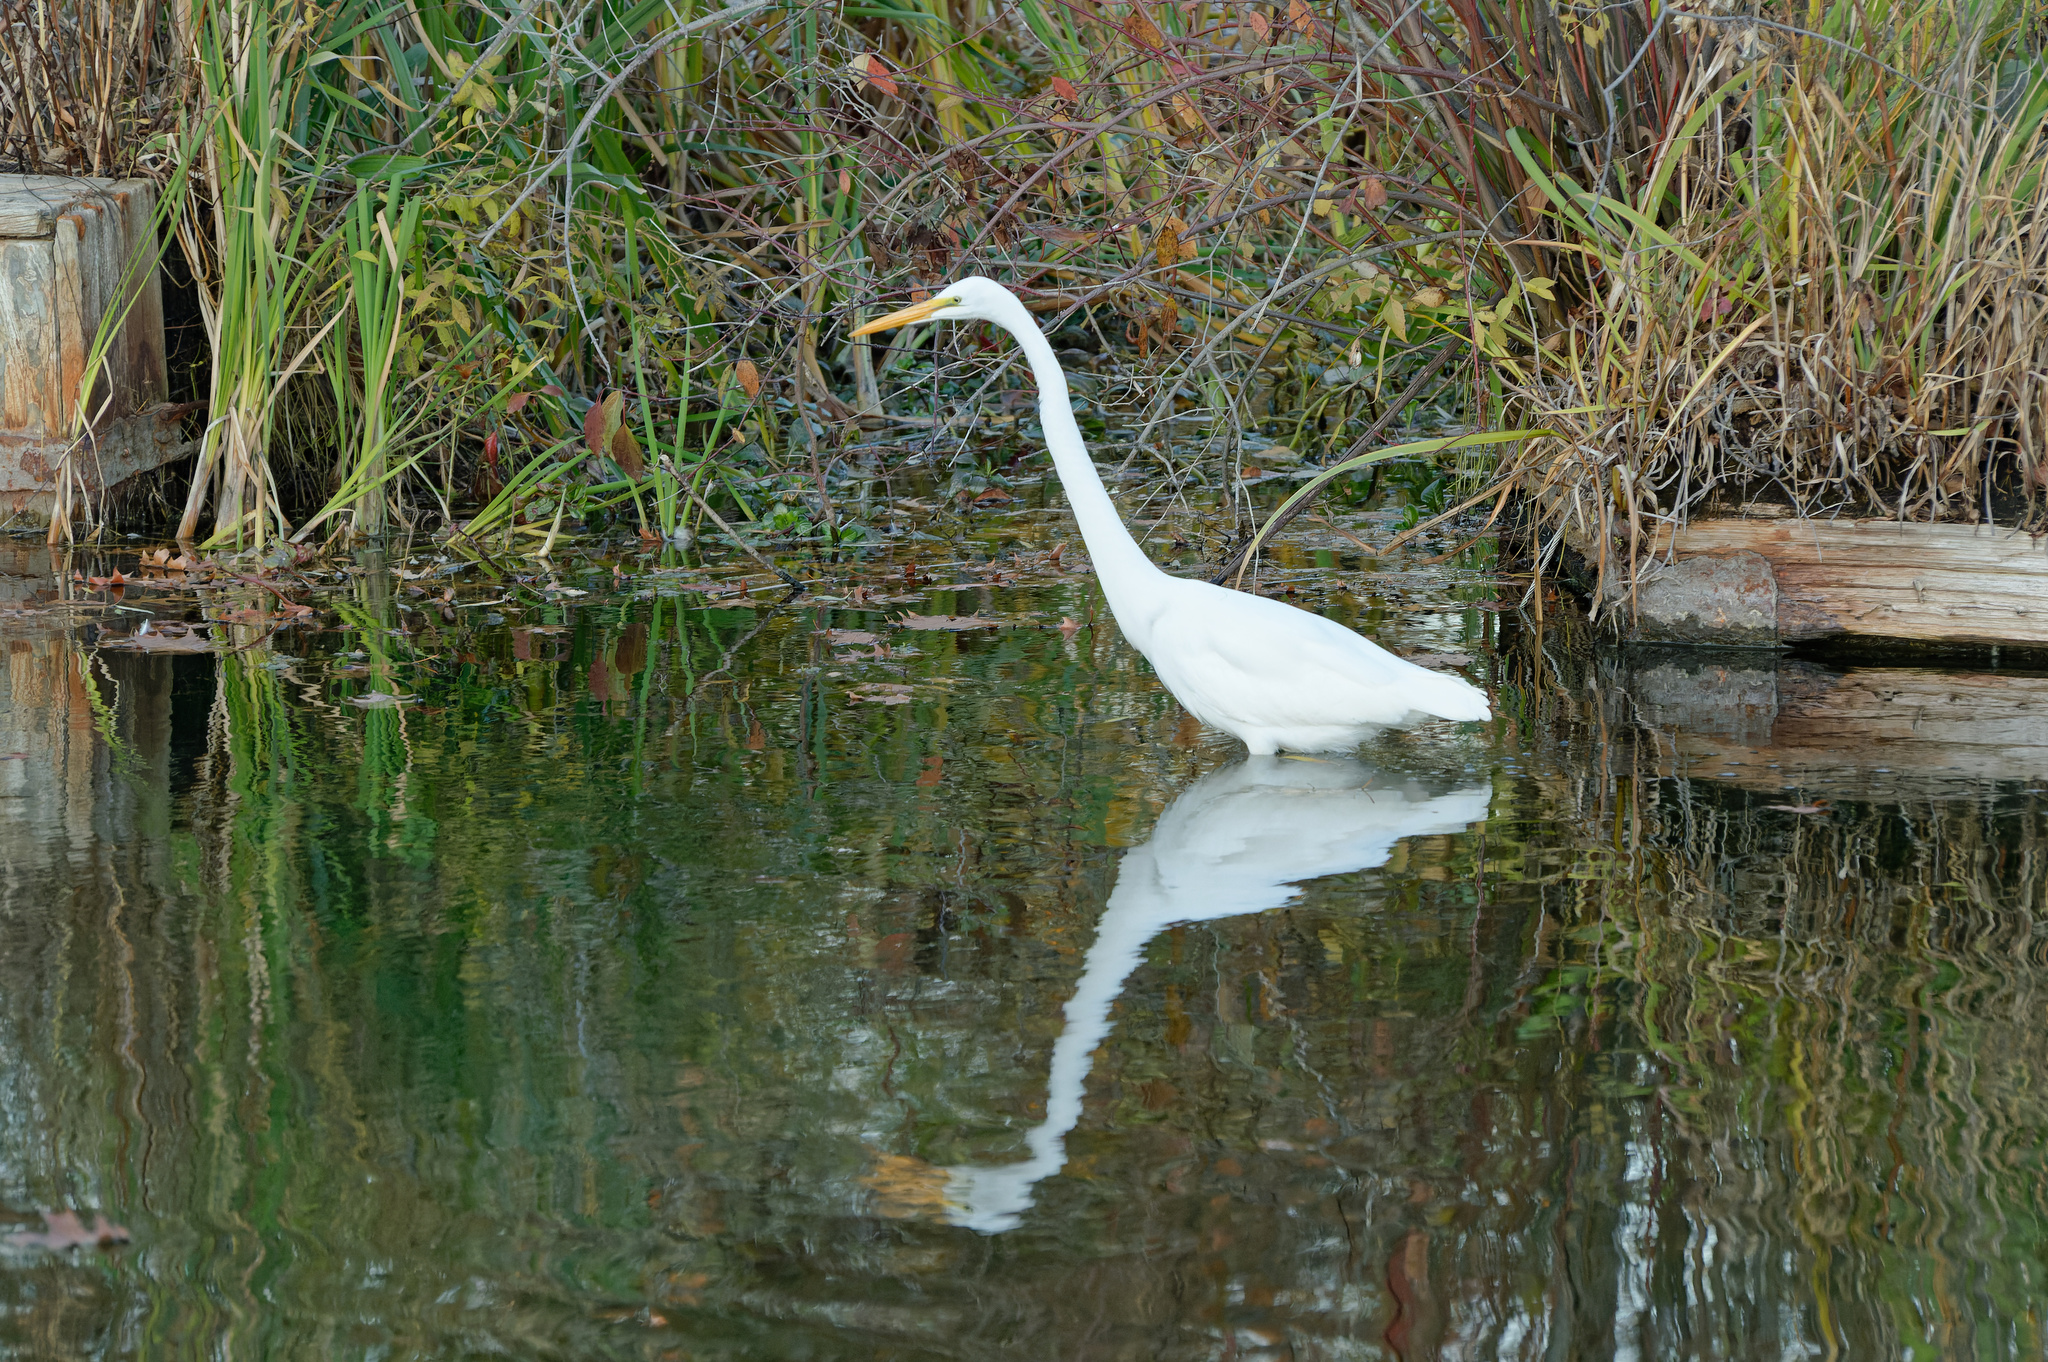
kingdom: Animalia
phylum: Chordata
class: Aves
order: Pelecaniformes
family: Ardeidae
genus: Ardea
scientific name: Ardea alba
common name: Great egret
